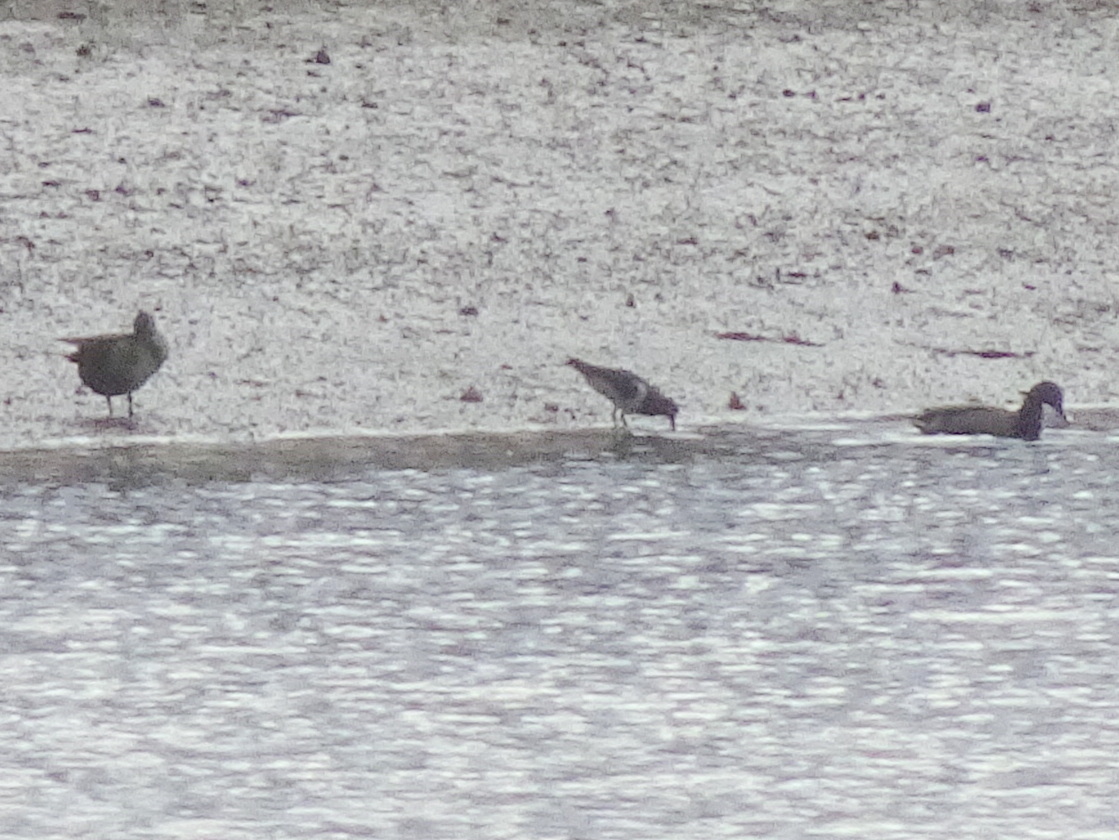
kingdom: Animalia
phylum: Chordata
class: Aves
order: Charadriiformes
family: Haematopodidae
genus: Haematopus
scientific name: Haematopus ostralegus
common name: Eurasian oystercatcher
